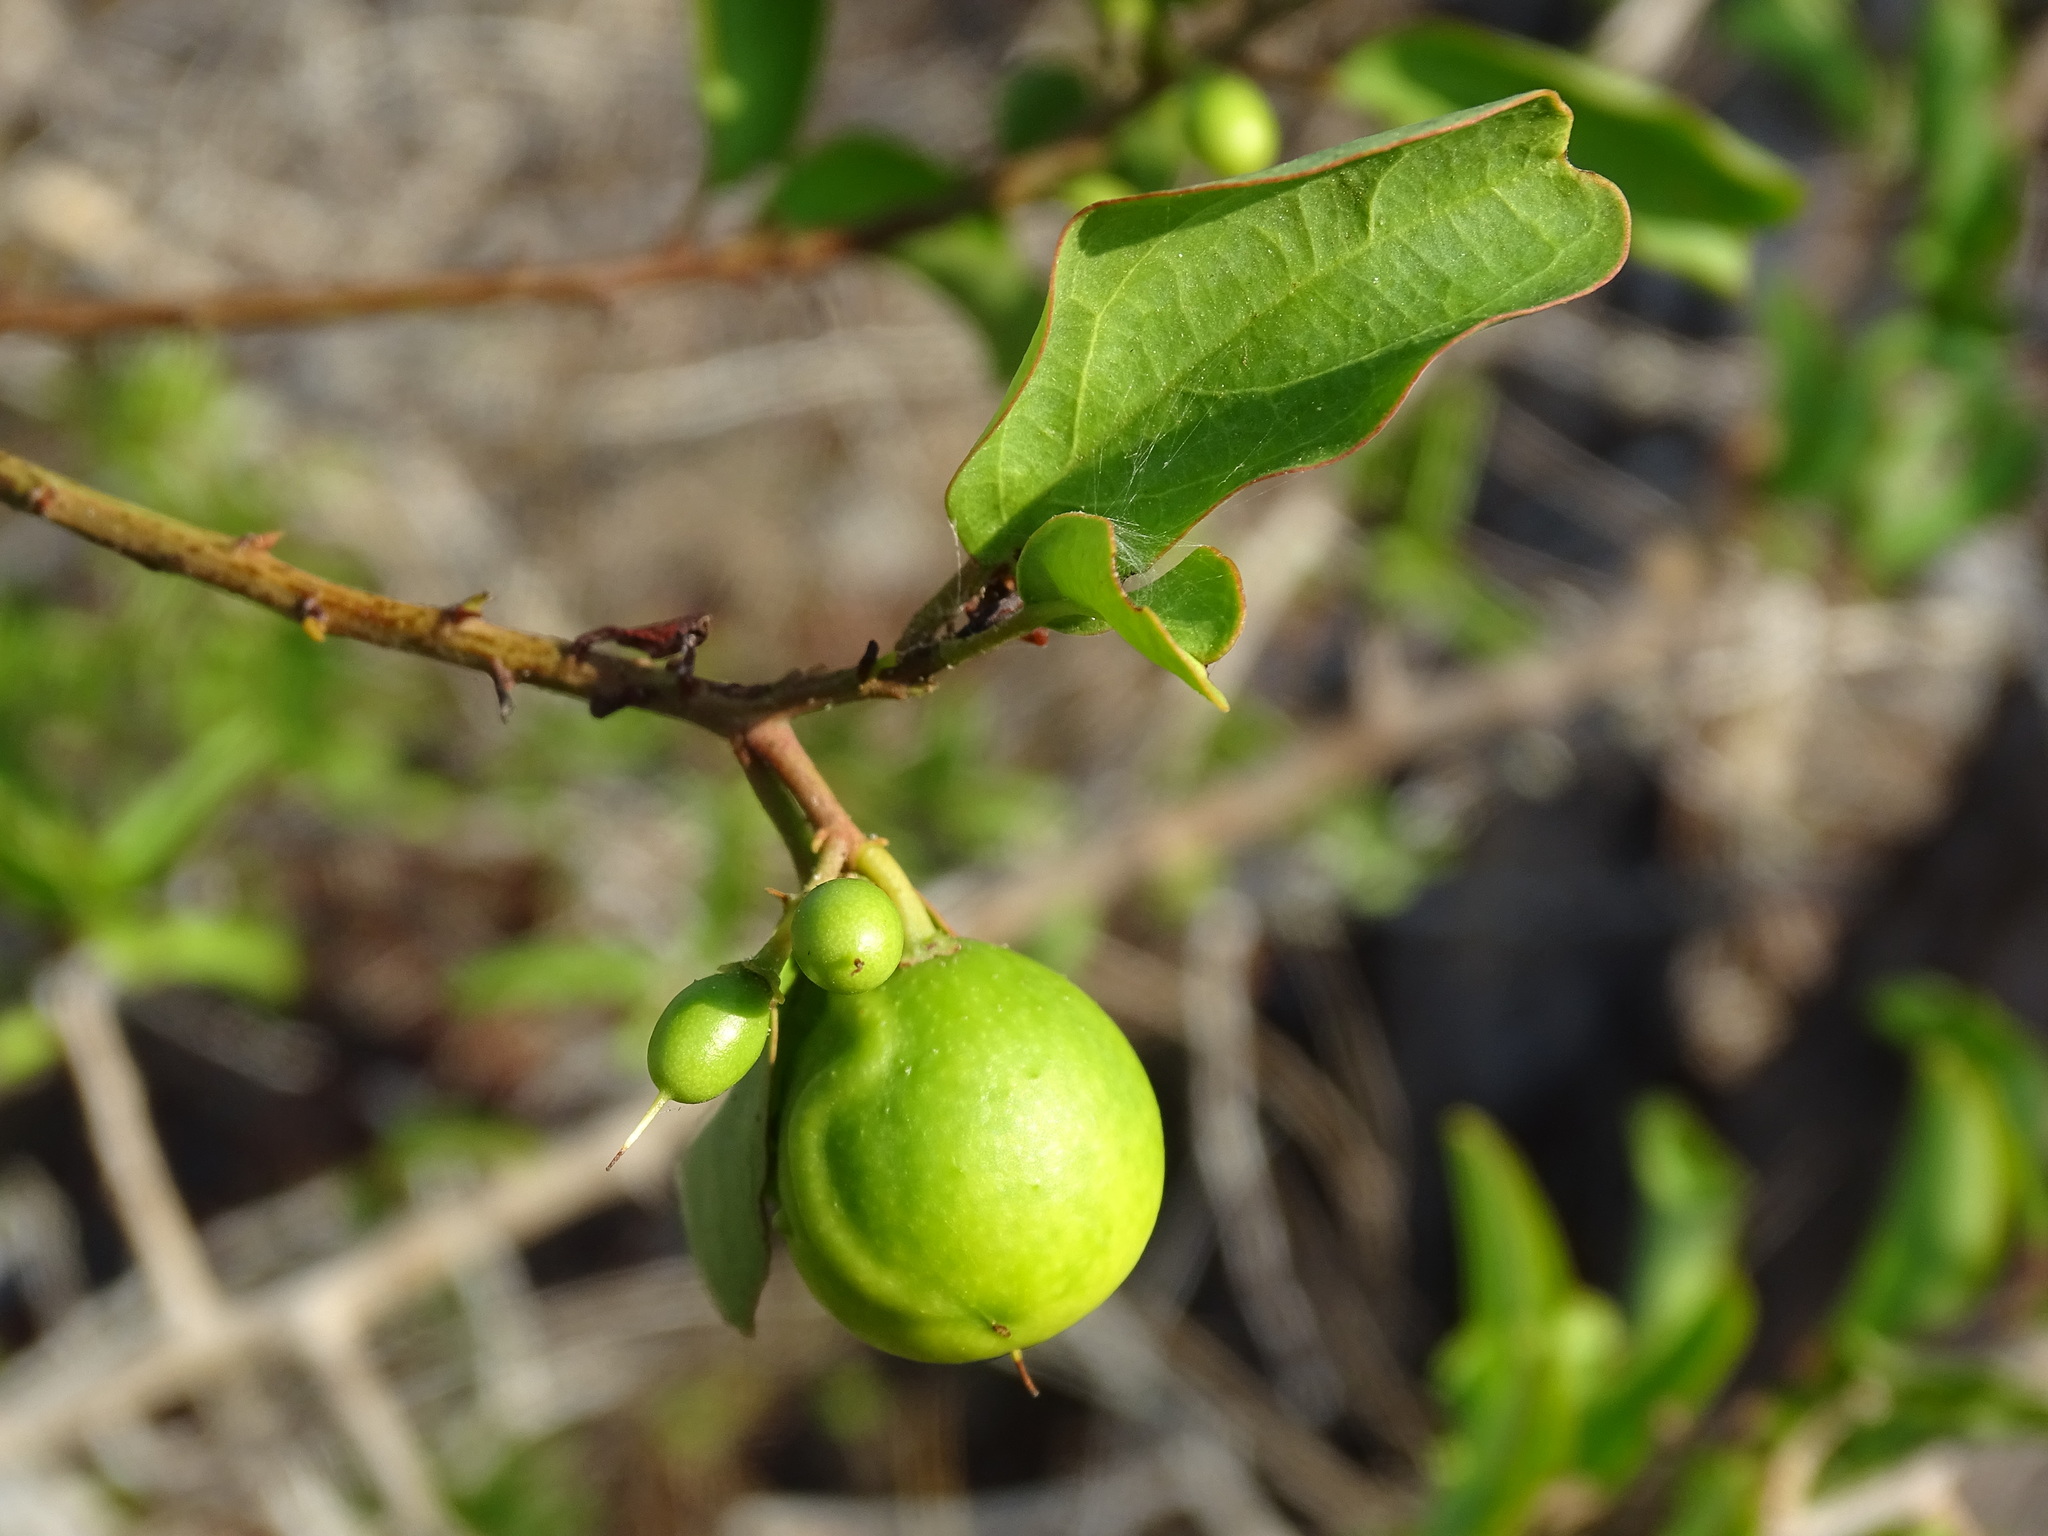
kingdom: Plantae
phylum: Tracheophyta
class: Magnoliopsida
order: Santalales
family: Ximeniaceae
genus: Ximenia
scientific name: Ximenia americana
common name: Tallowwood
